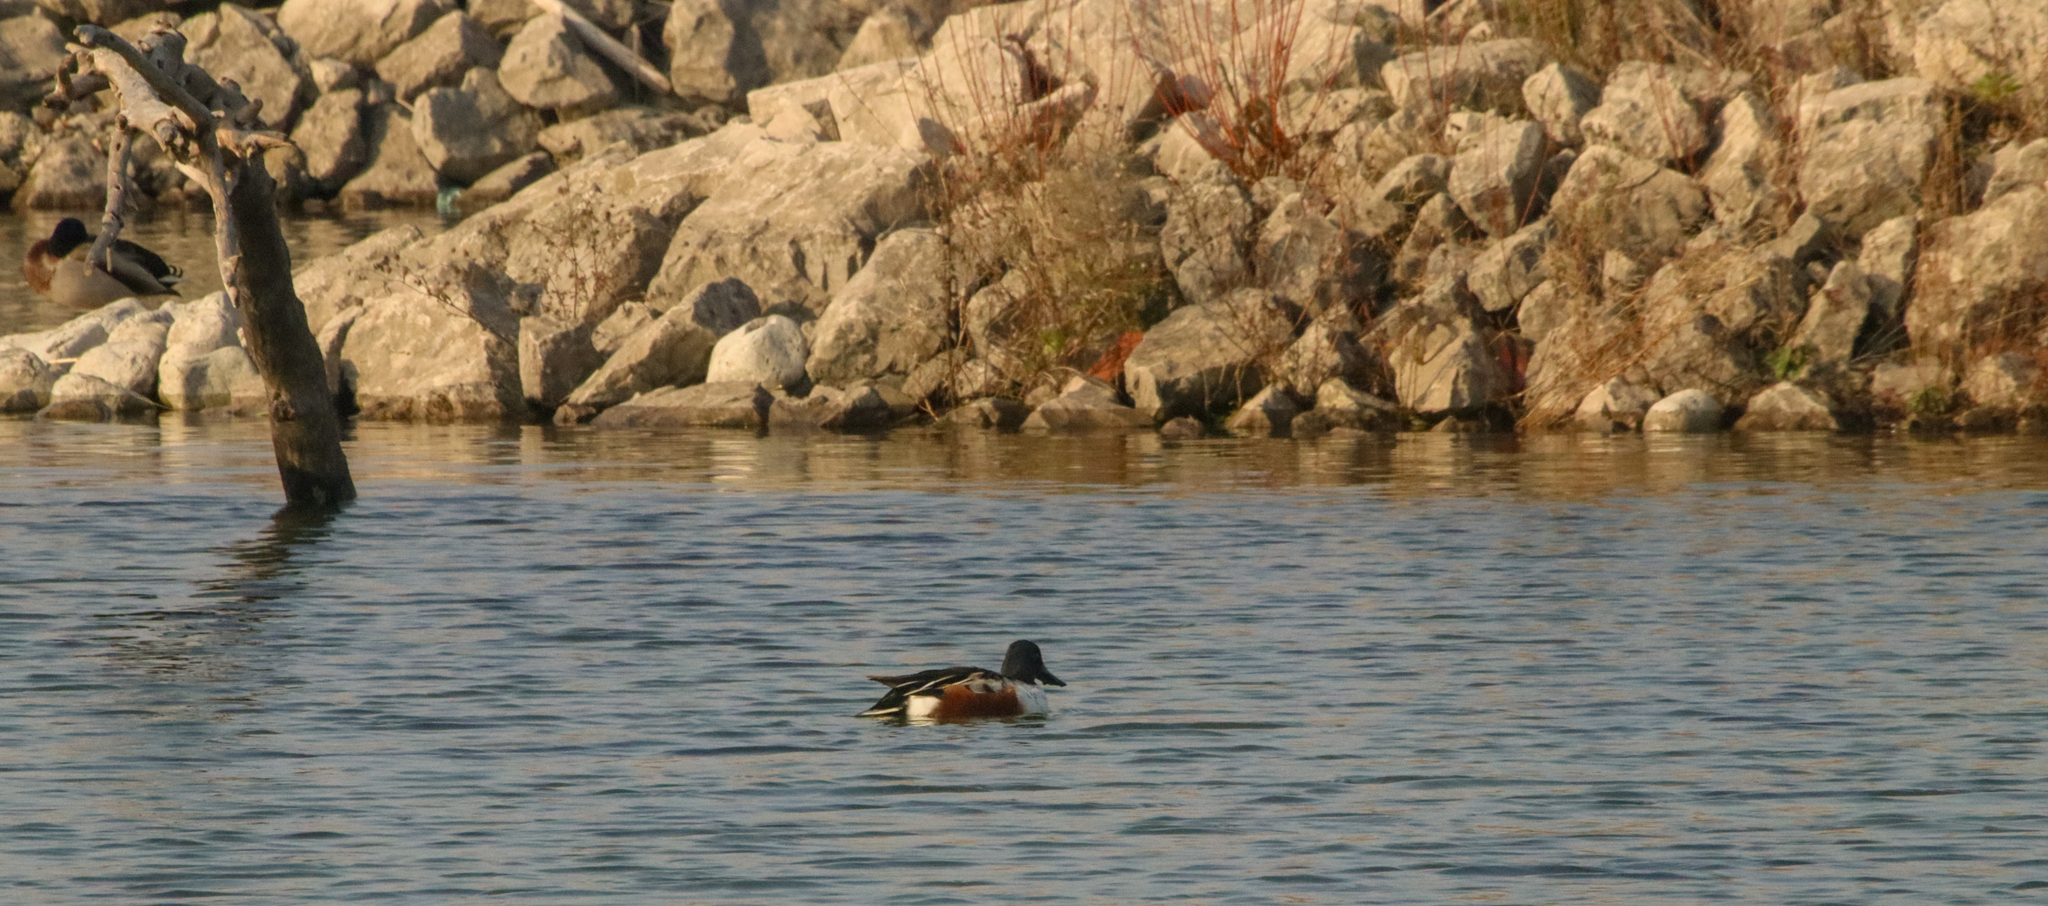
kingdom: Animalia
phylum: Chordata
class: Aves
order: Anseriformes
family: Anatidae
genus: Spatula
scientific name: Spatula clypeata
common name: Northern shoveler
